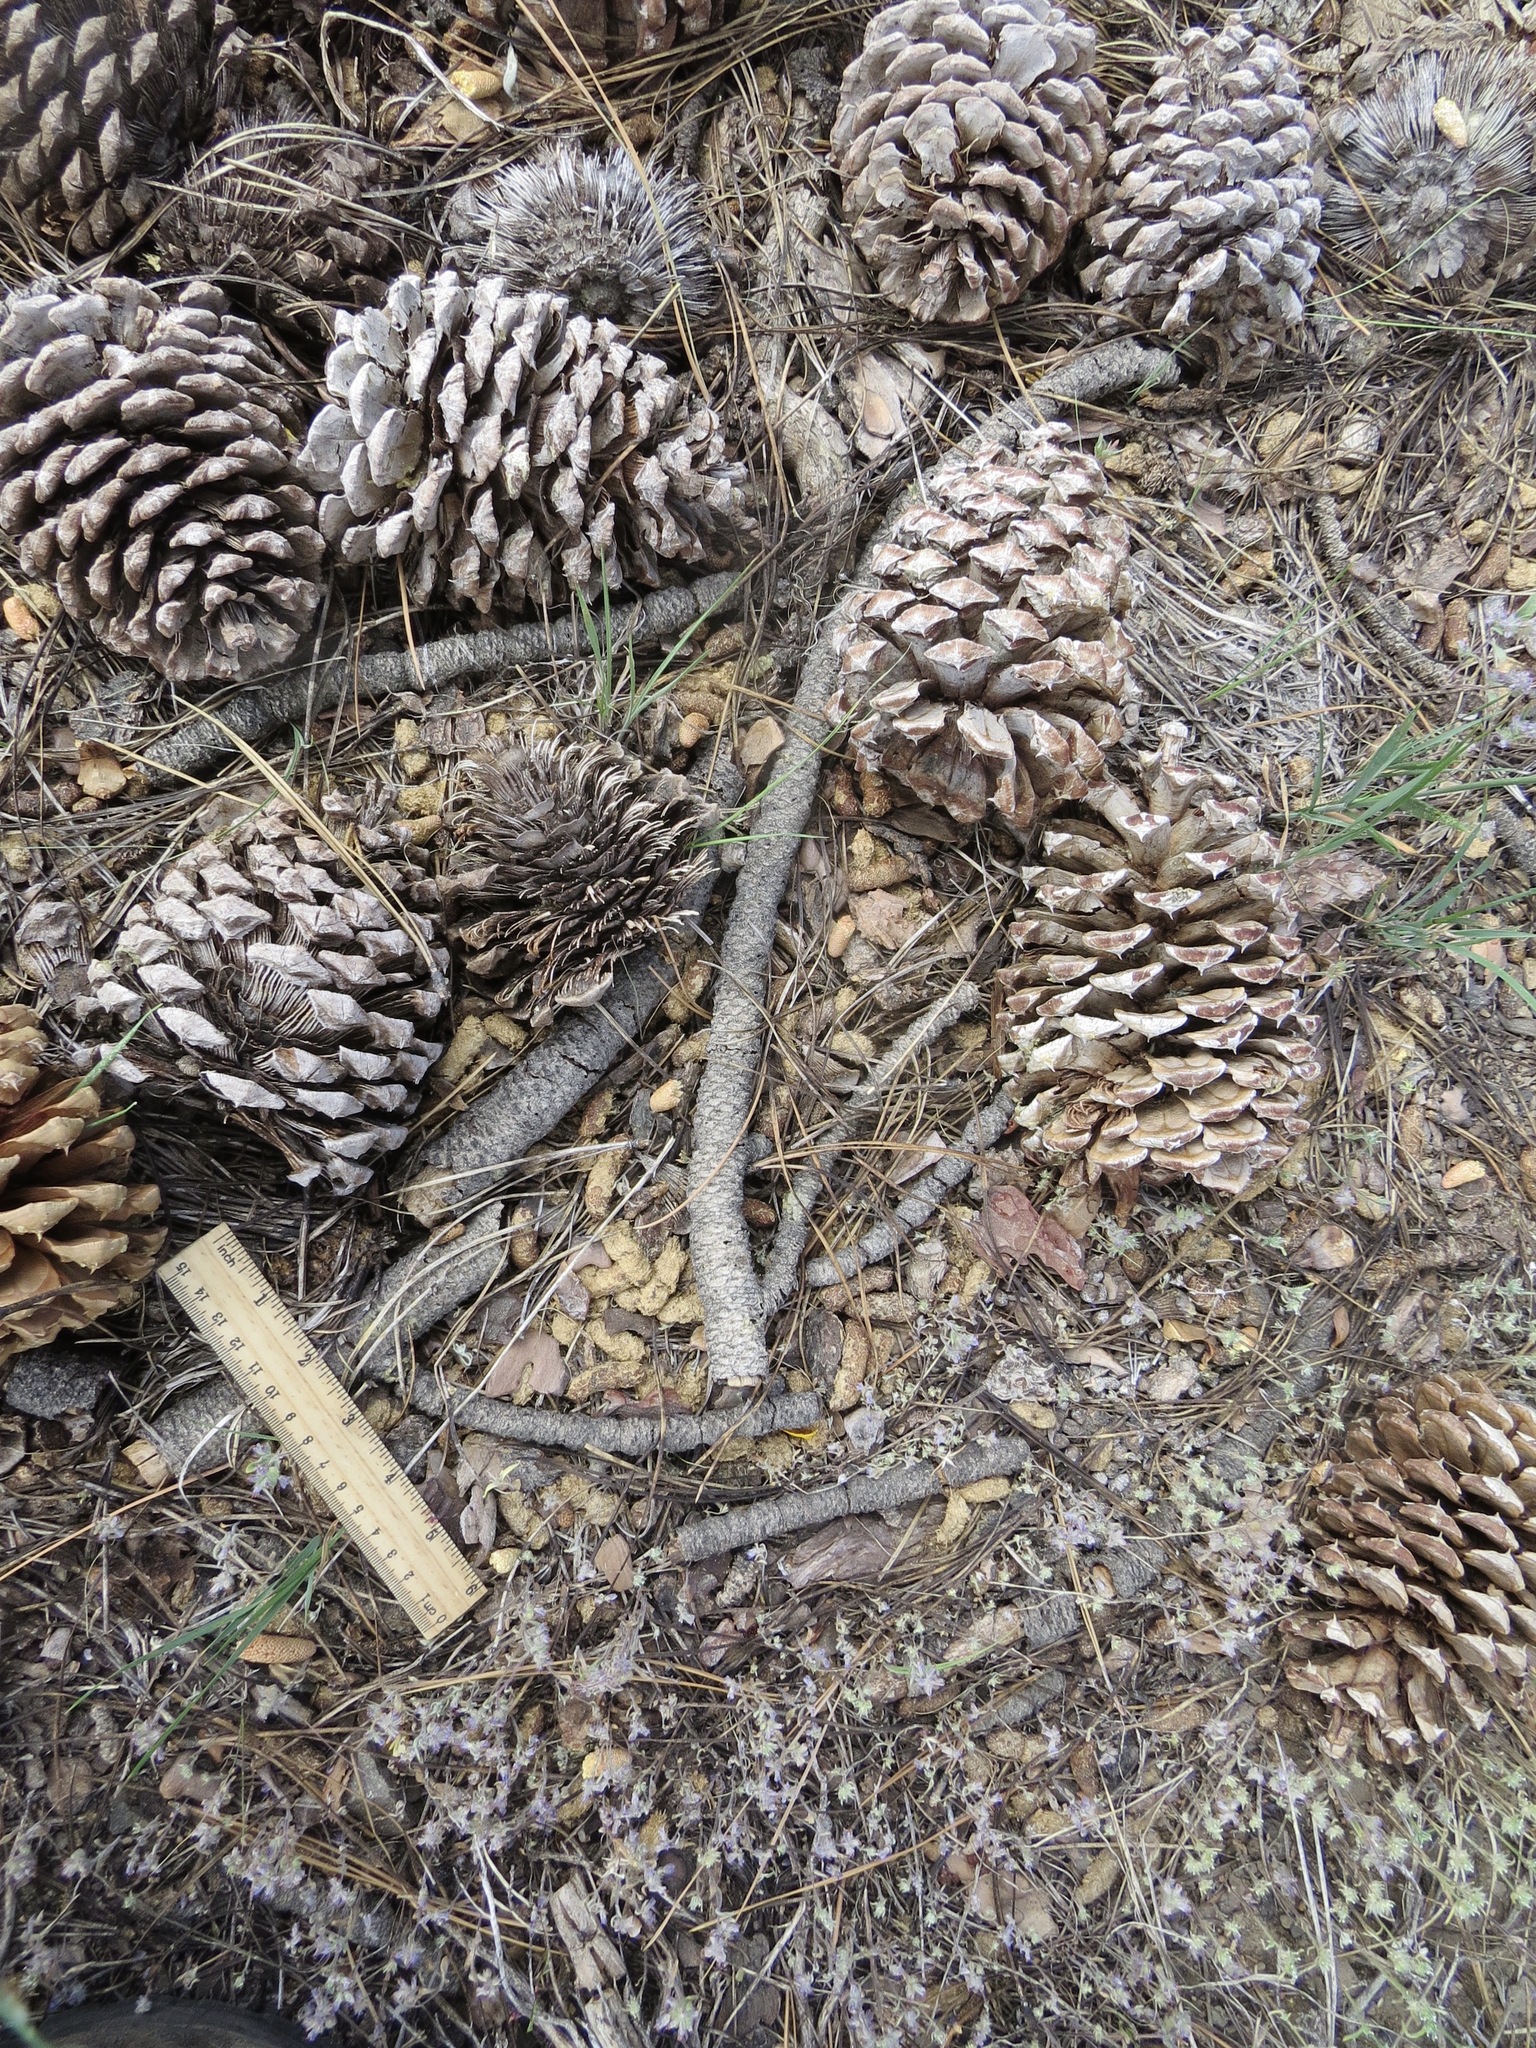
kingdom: Animalia
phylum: Chordata
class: Mammalia
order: Rodentia
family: Erethizontidae
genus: Erethizon
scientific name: Erethizon dorsatus
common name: North american porcupine
